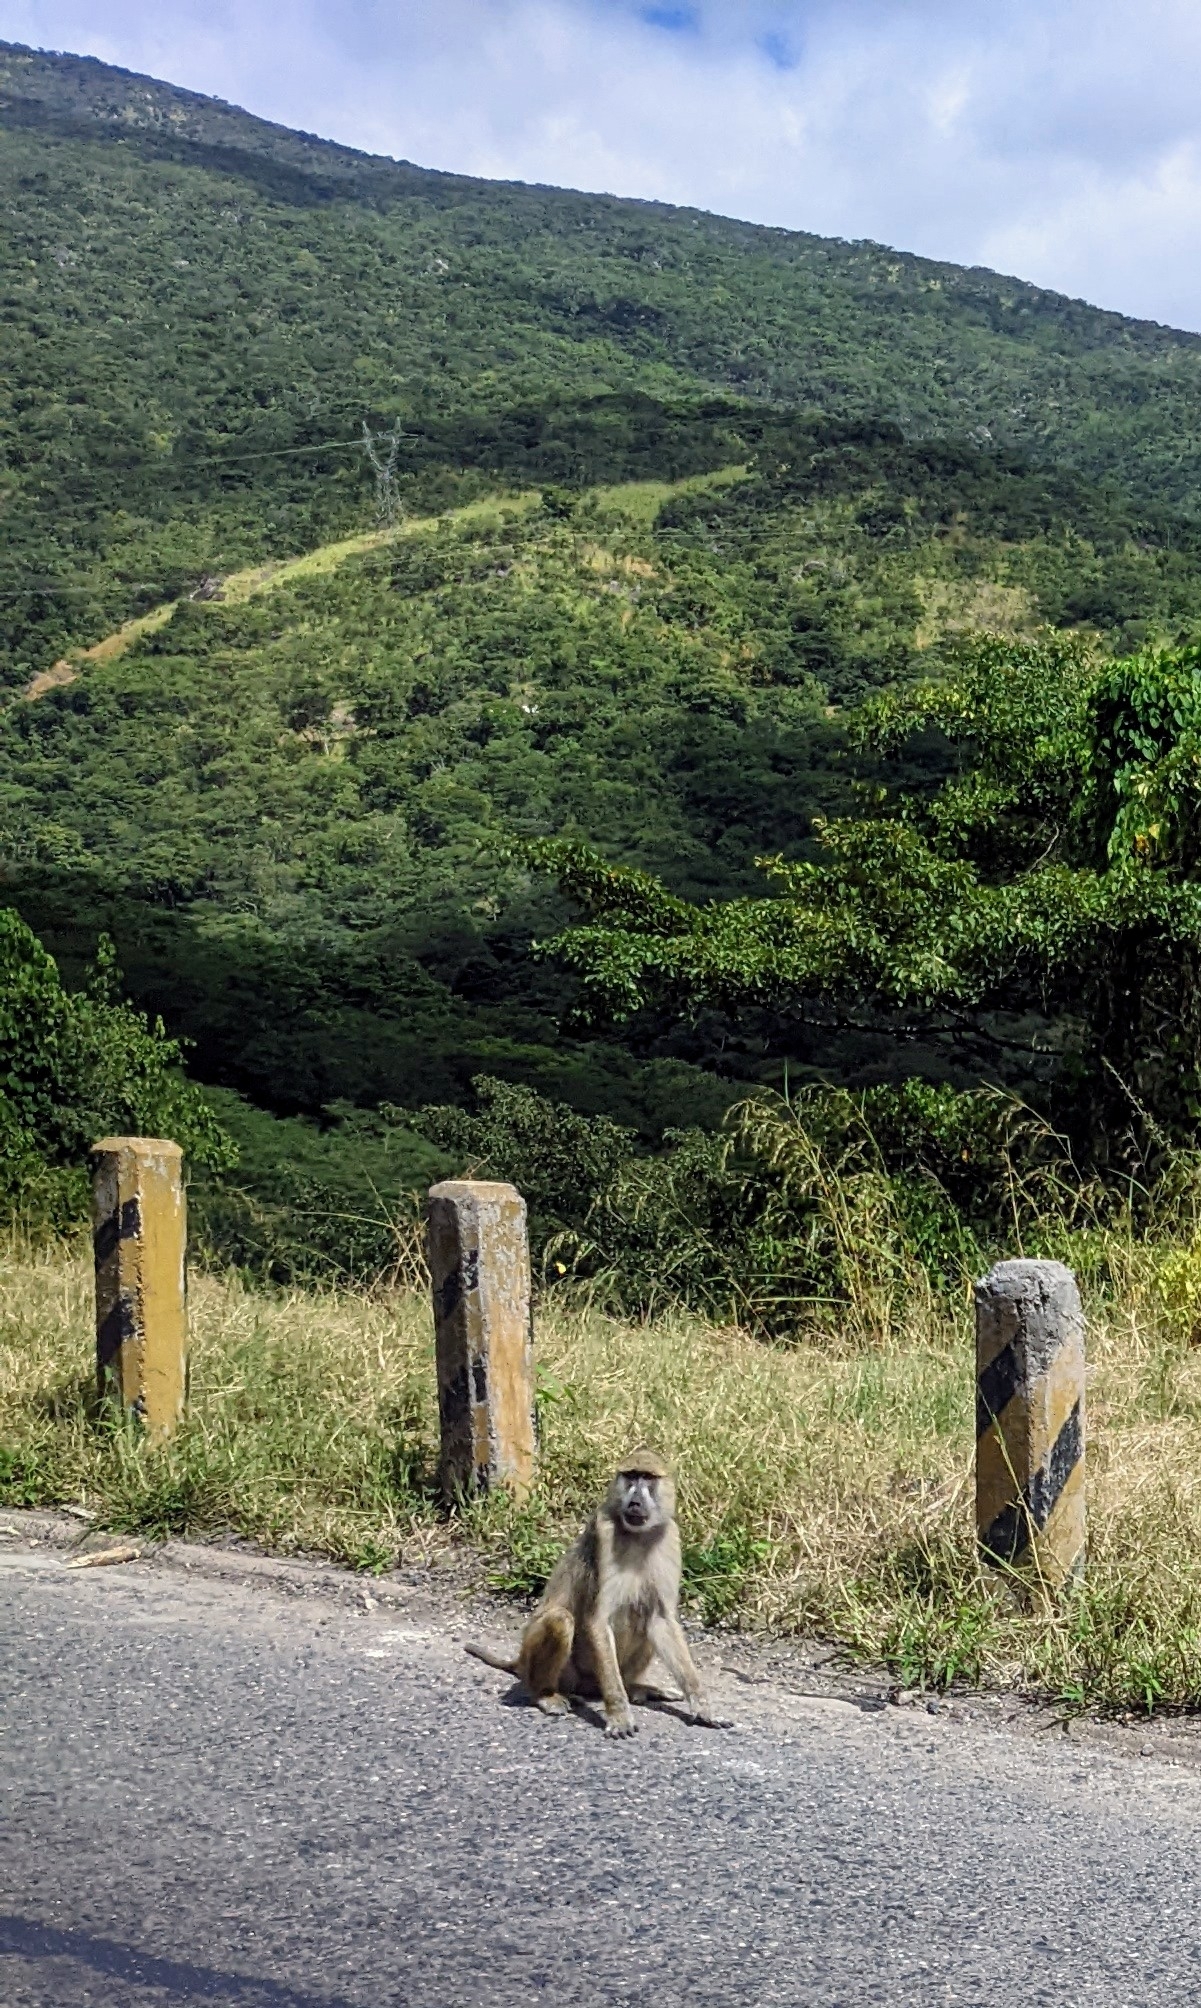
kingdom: Animalia
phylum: Chordata
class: Mammalia
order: Primates
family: Cercopithecidae
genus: Papio
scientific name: Papio cynocephalus
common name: Yellow baboon
